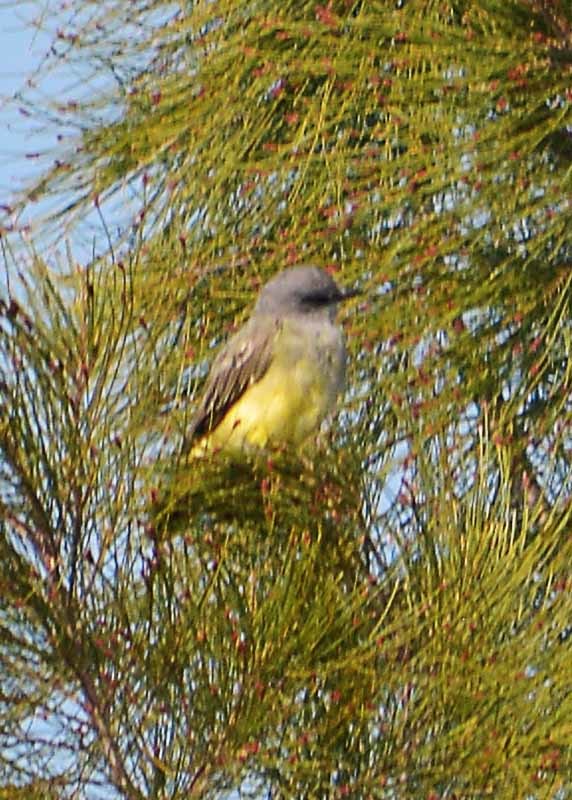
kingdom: Animalia
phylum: Chordata
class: Aves
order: Passeriformes
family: Tyrannidae
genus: Tyrannus
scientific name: Tyrannus verticalis
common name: Western kingbird
